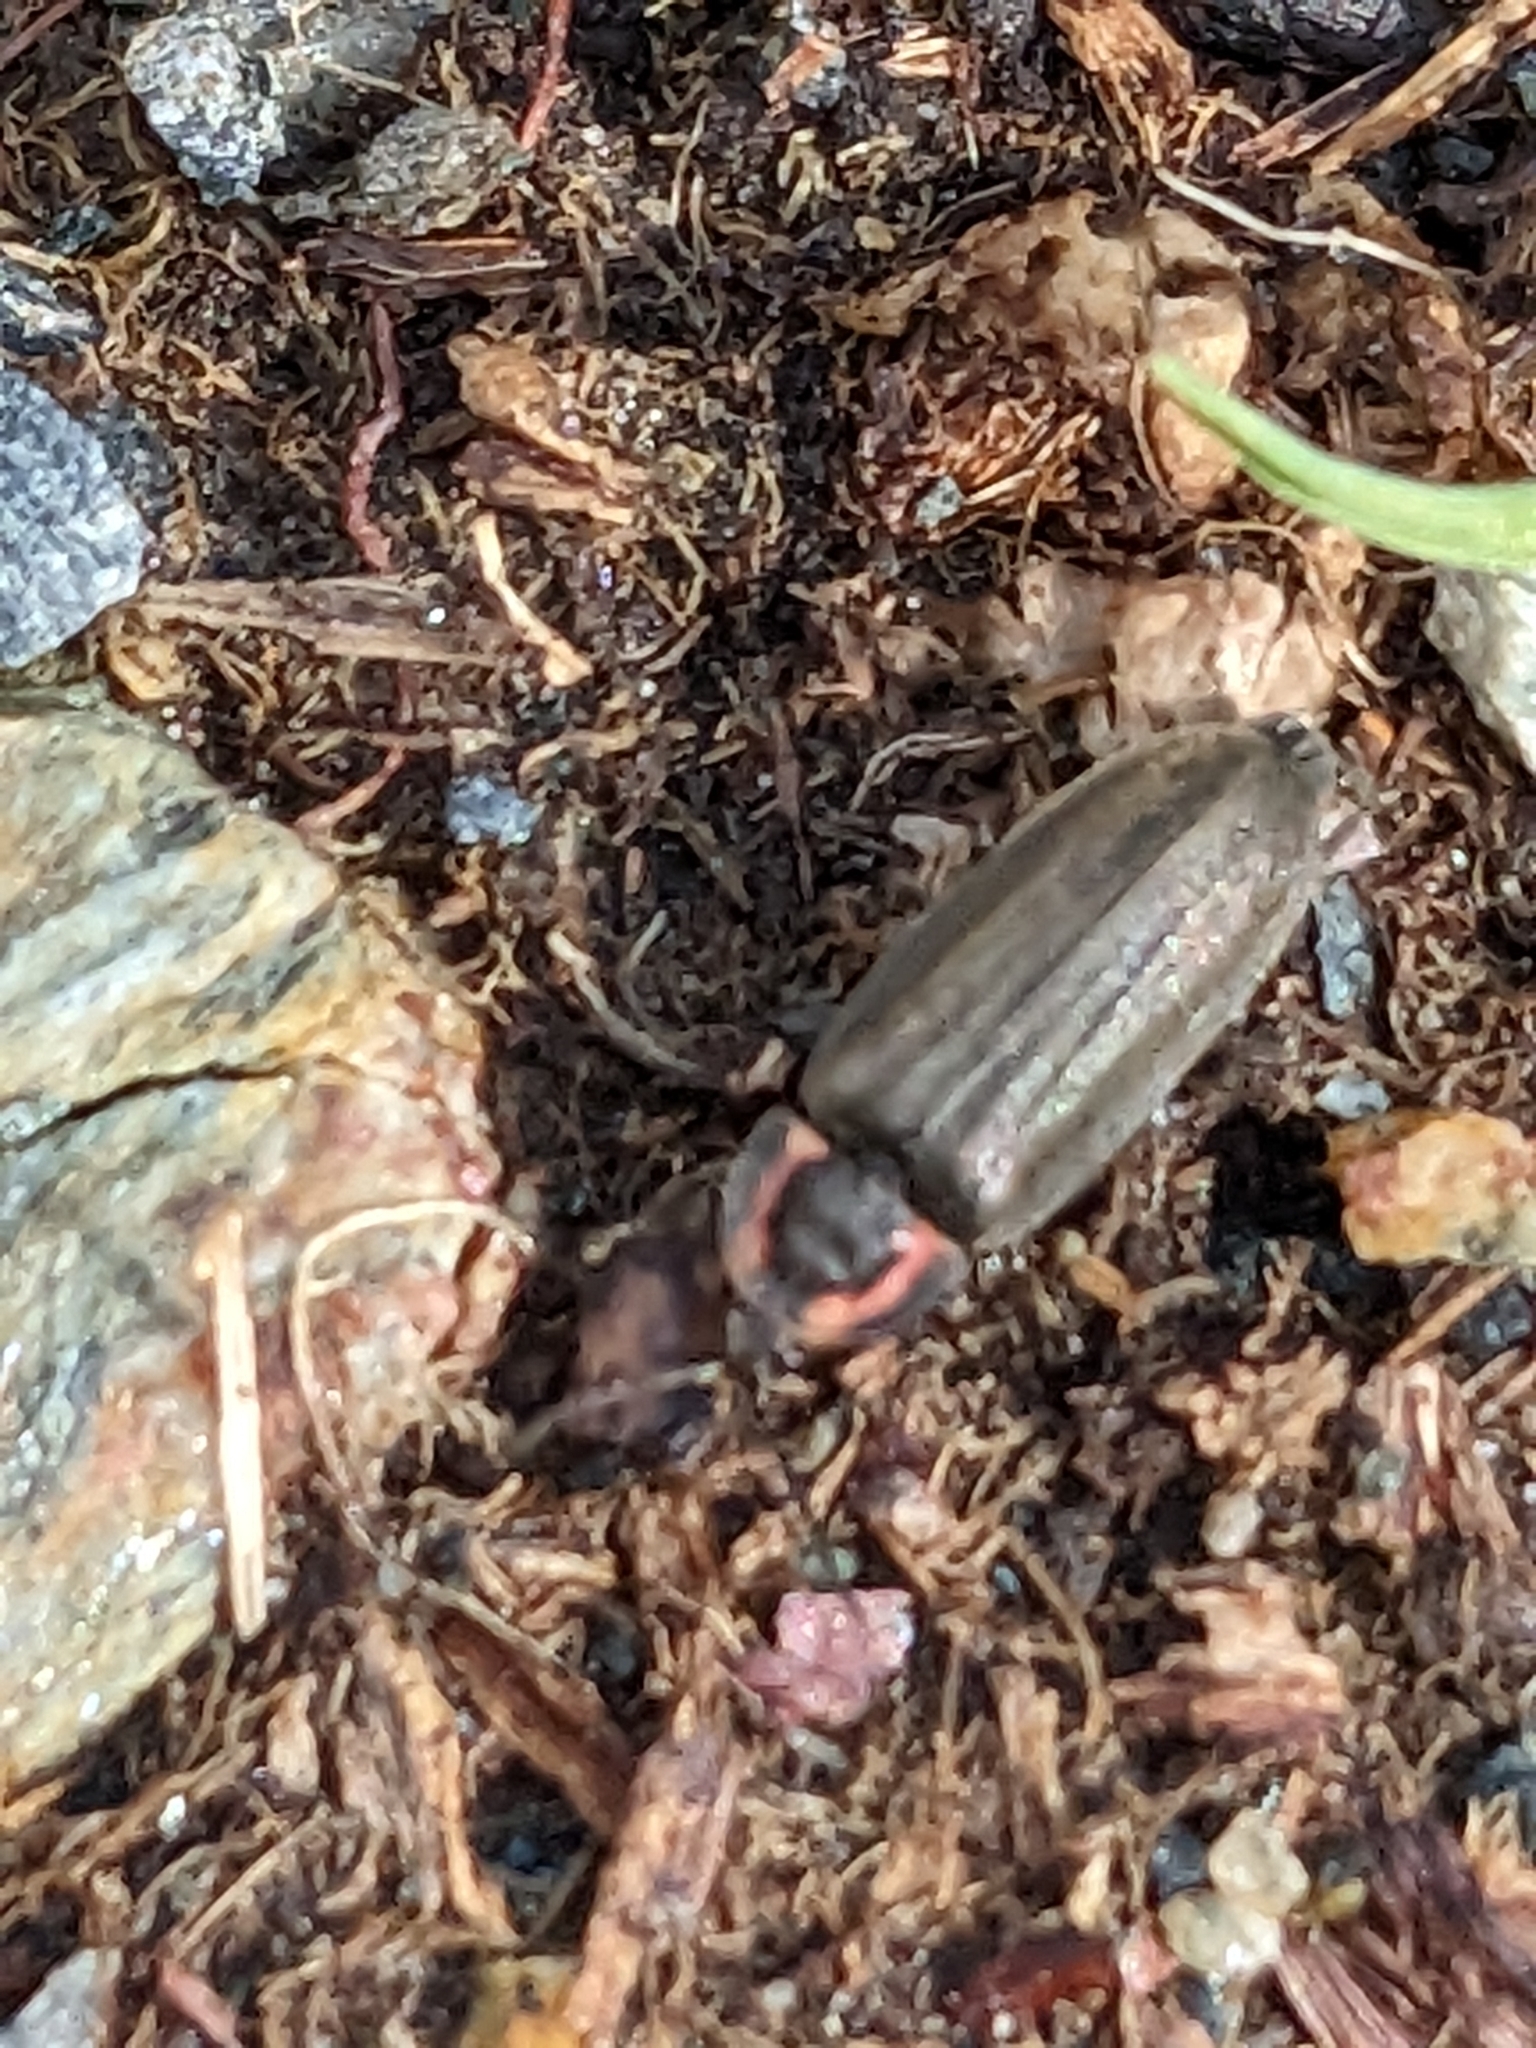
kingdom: Animalia
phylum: Arthropoda
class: Insecta
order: Coleoptera
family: Lampyridae
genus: Photinus
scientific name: Photinus corrusca
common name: Winter firefly
